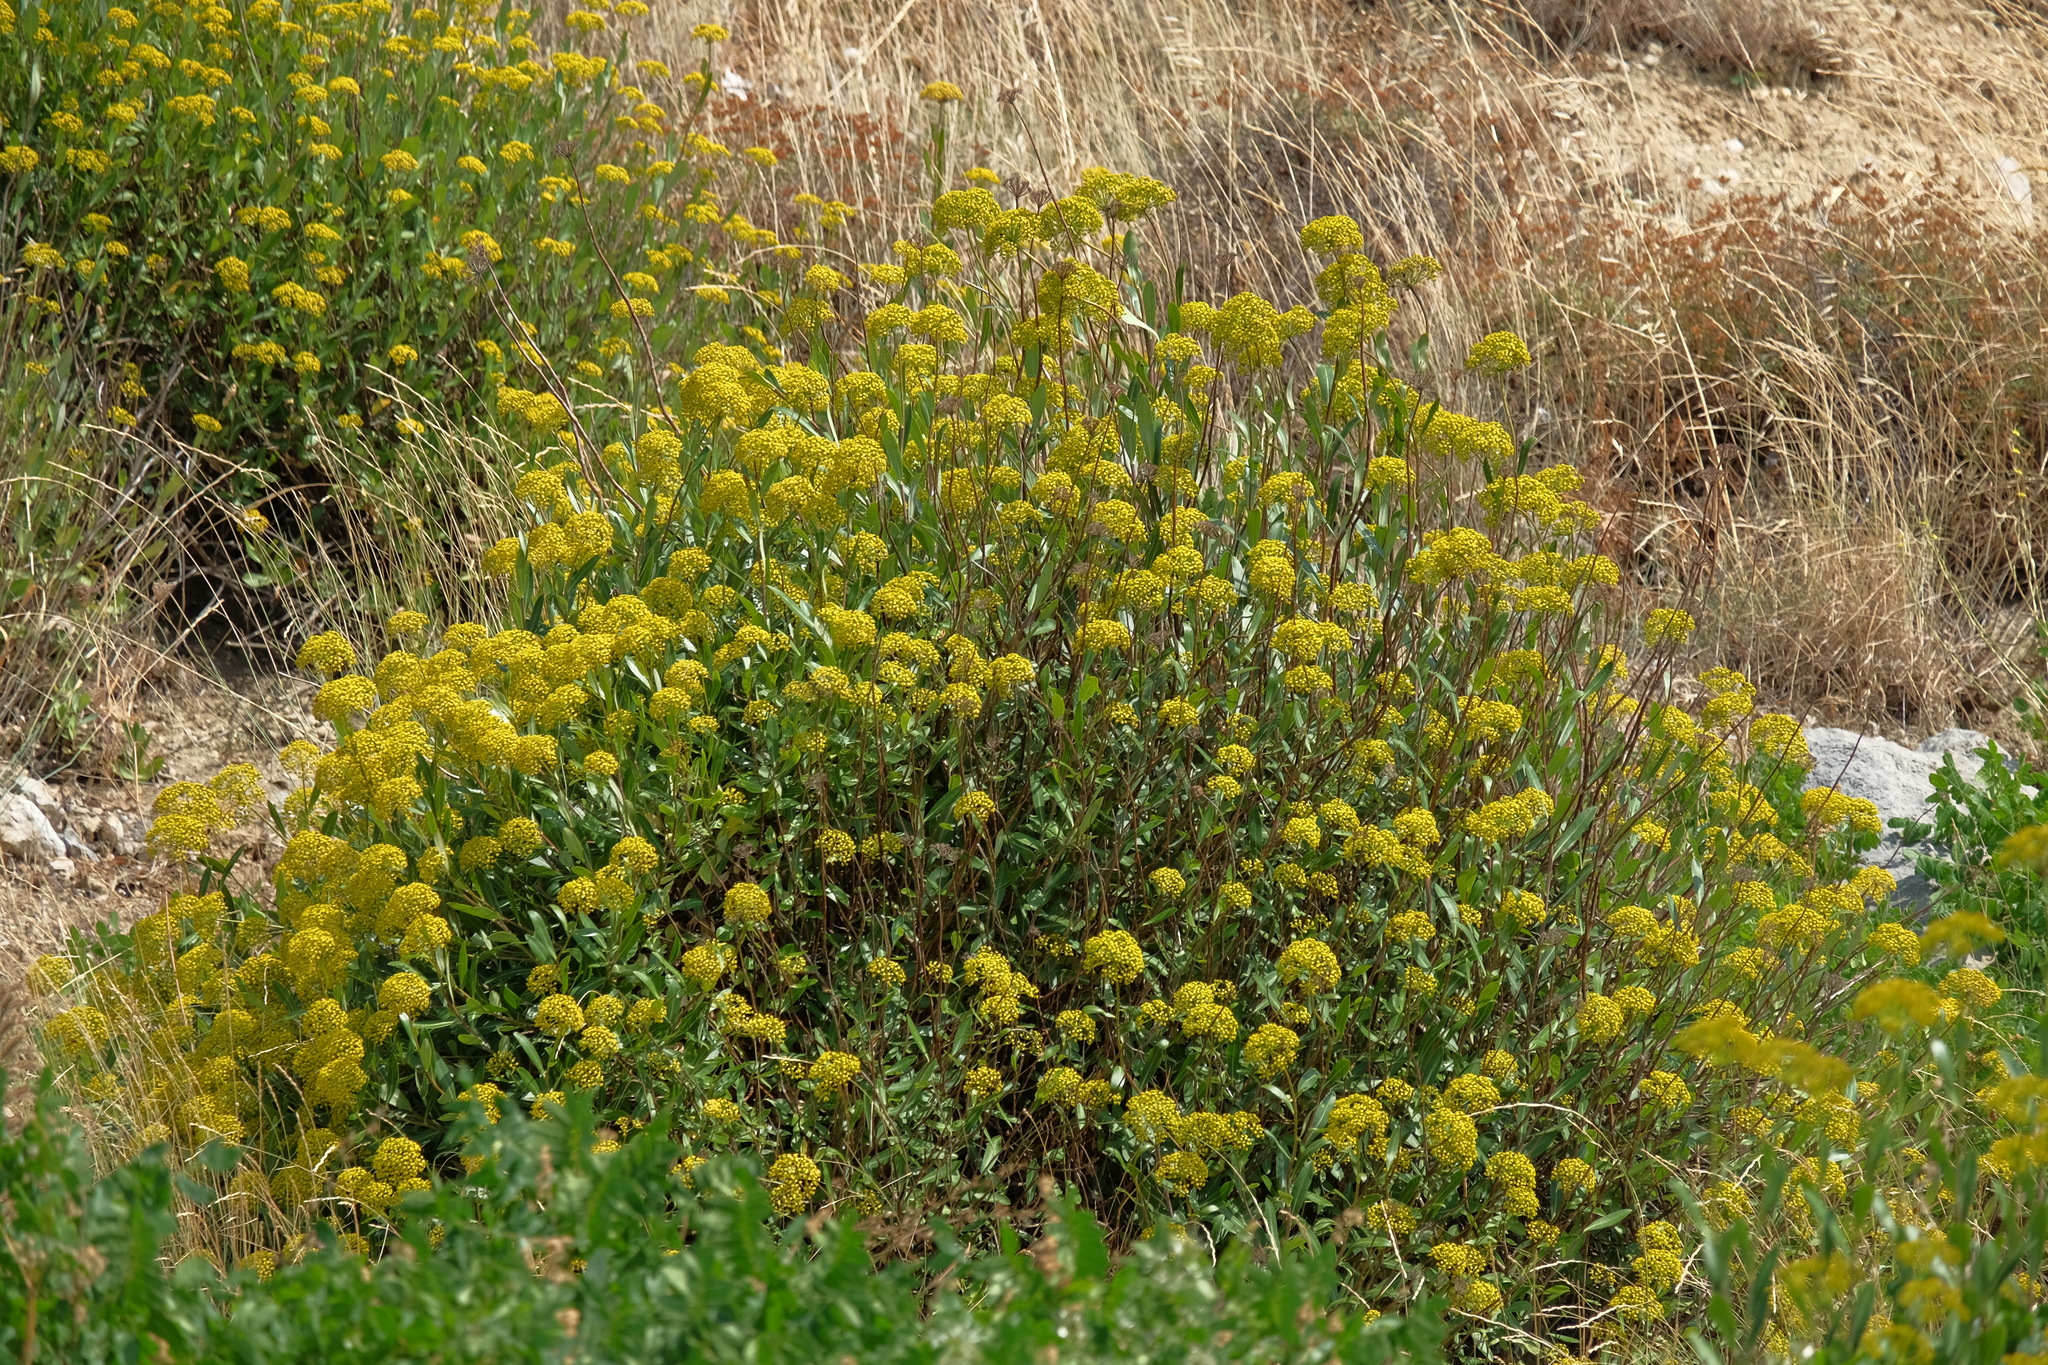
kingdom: Plantae
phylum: Tracheophyta
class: Magnoliopsida
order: Apiales
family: Apiaceae
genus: Bupleurum
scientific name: Bupleurum fruticosum
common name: Shrubby hare's-ear
